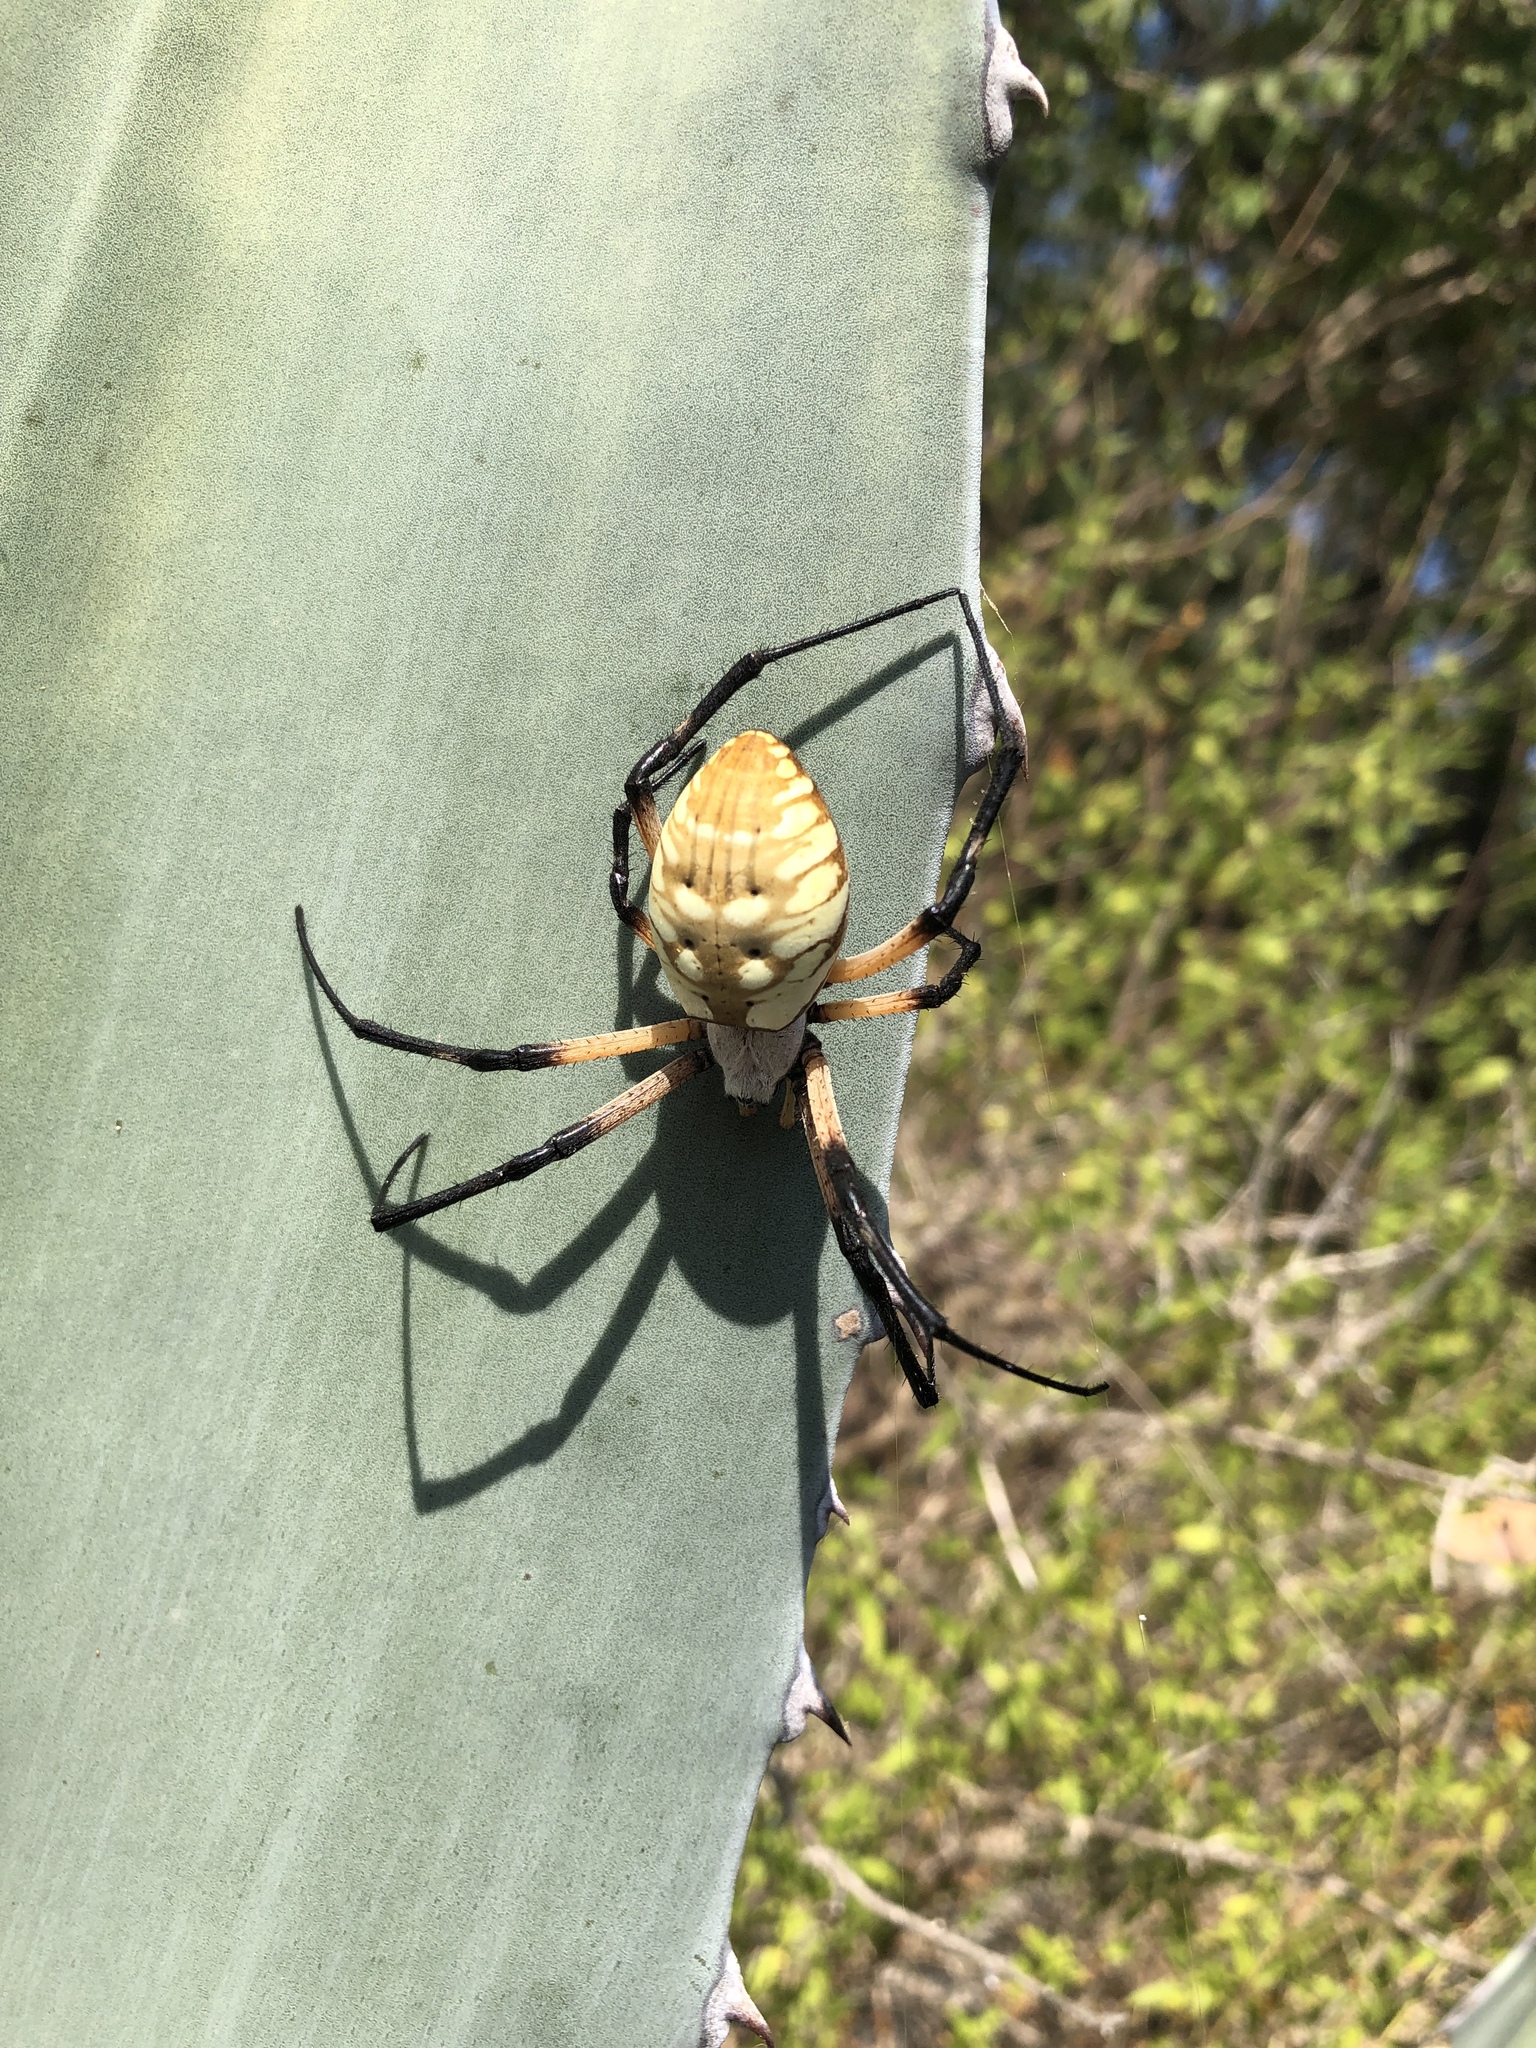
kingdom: Animalia
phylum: Arthropoda
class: Arachnida
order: Araneae
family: Araneidae
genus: Argiope
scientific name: Argiope aurantia
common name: Orb weavers
